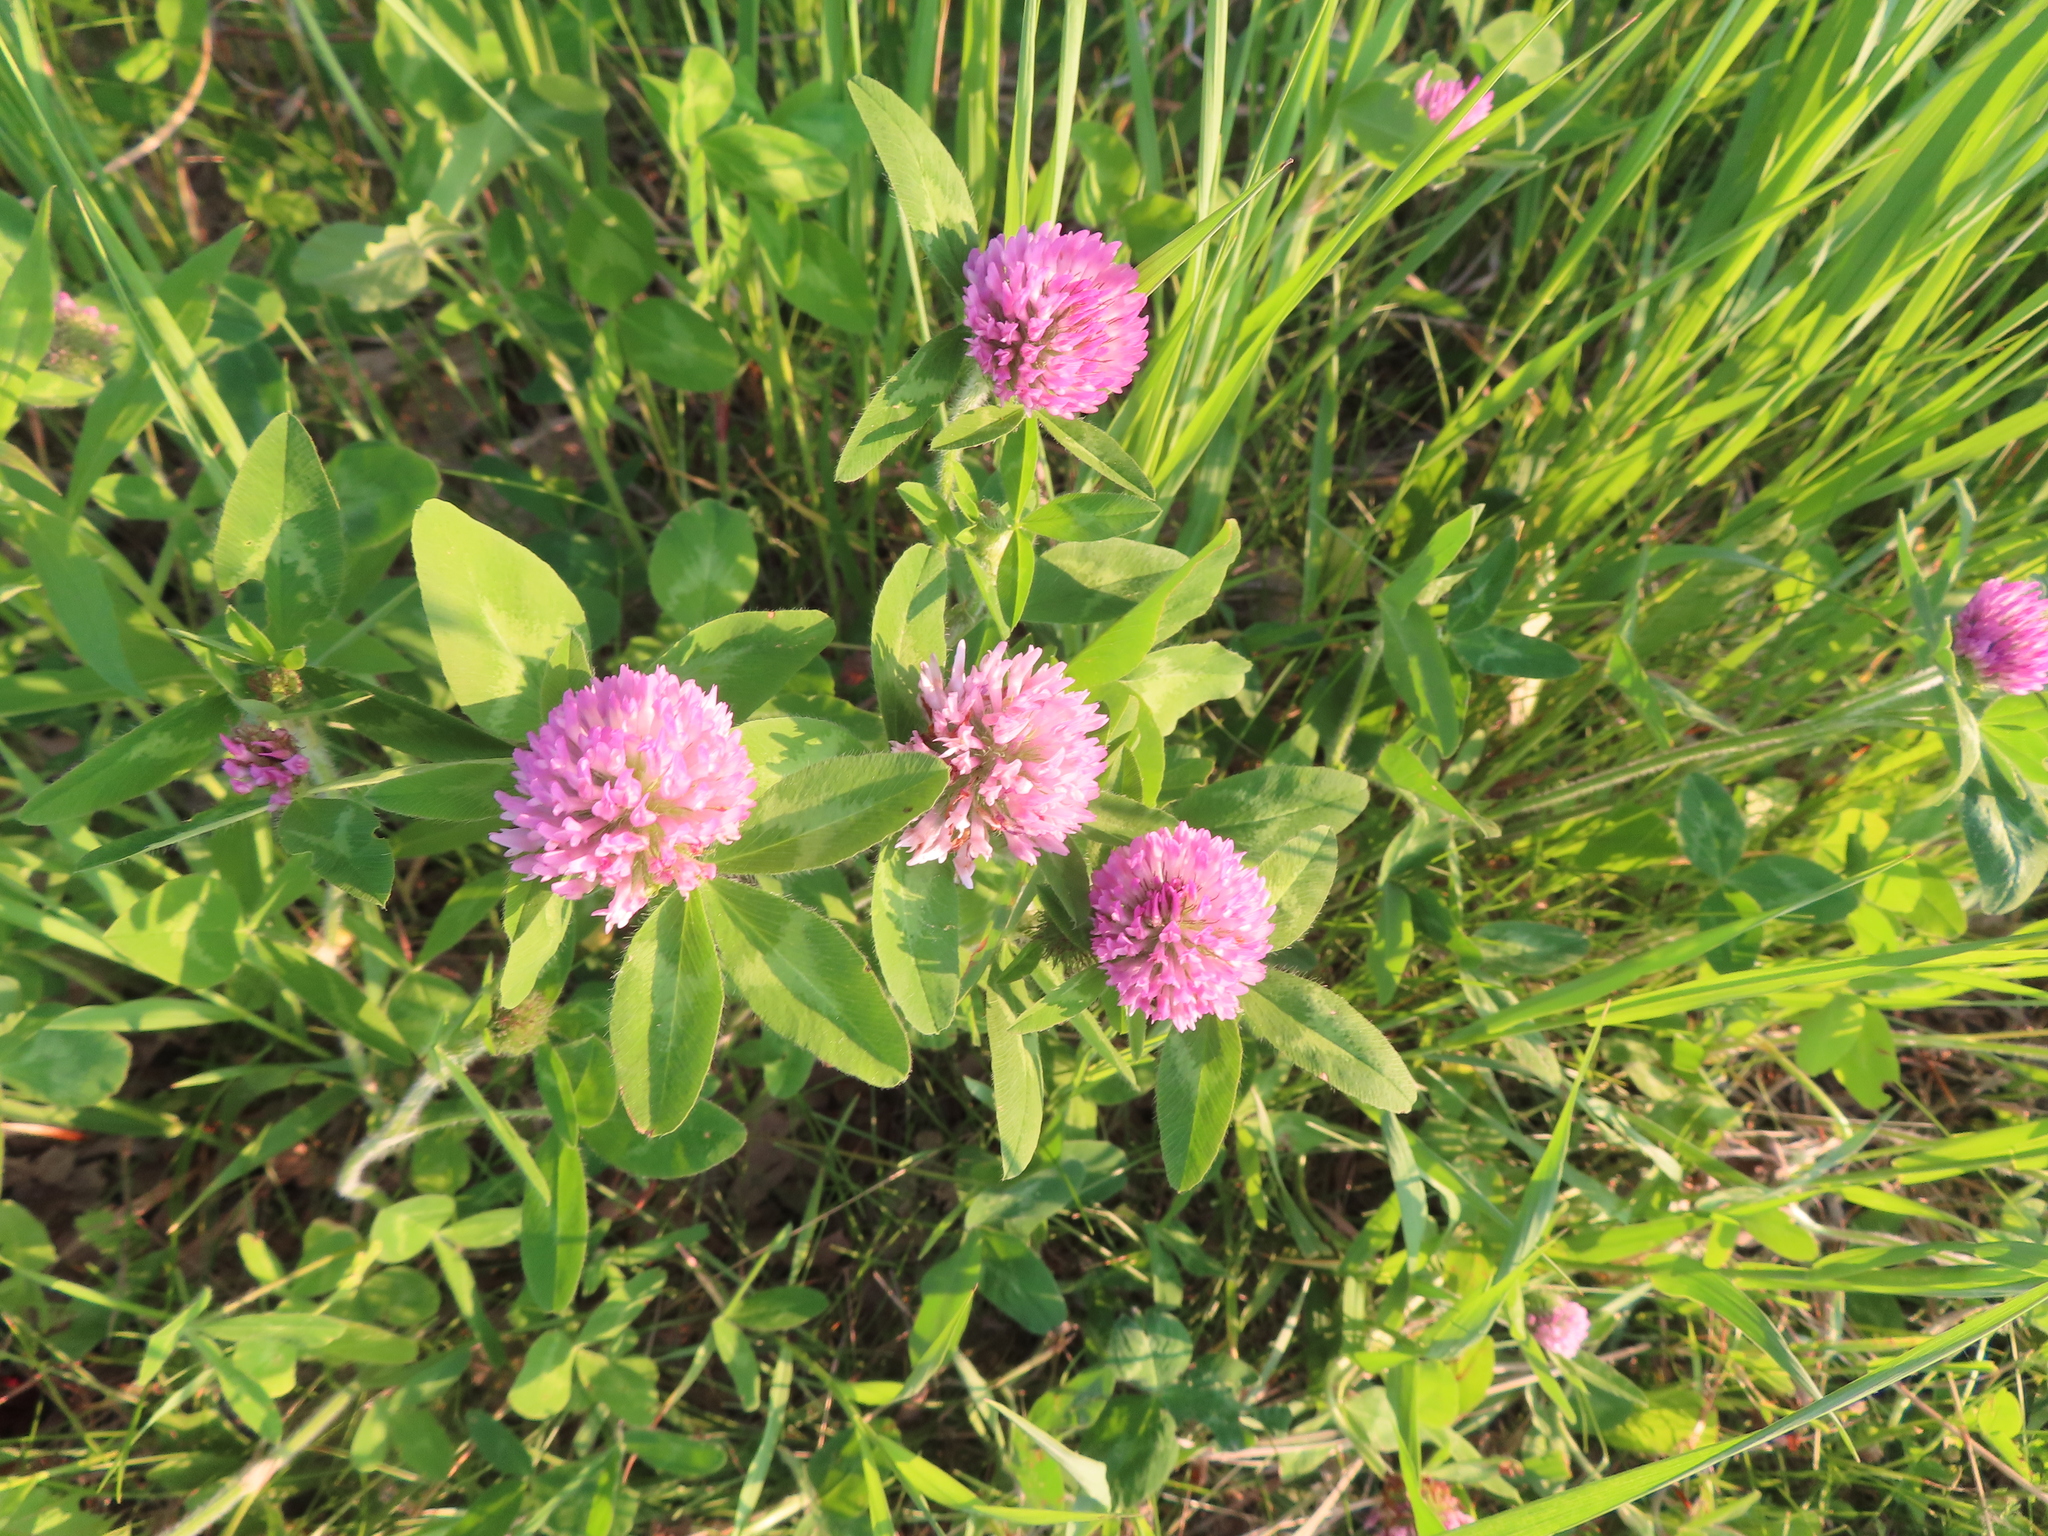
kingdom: Plantae
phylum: Tracheophyta
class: Magnoliopsida
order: Fabales
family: Fabaceae
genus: Trifolium
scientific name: Trifolium pratense
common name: Red clover
